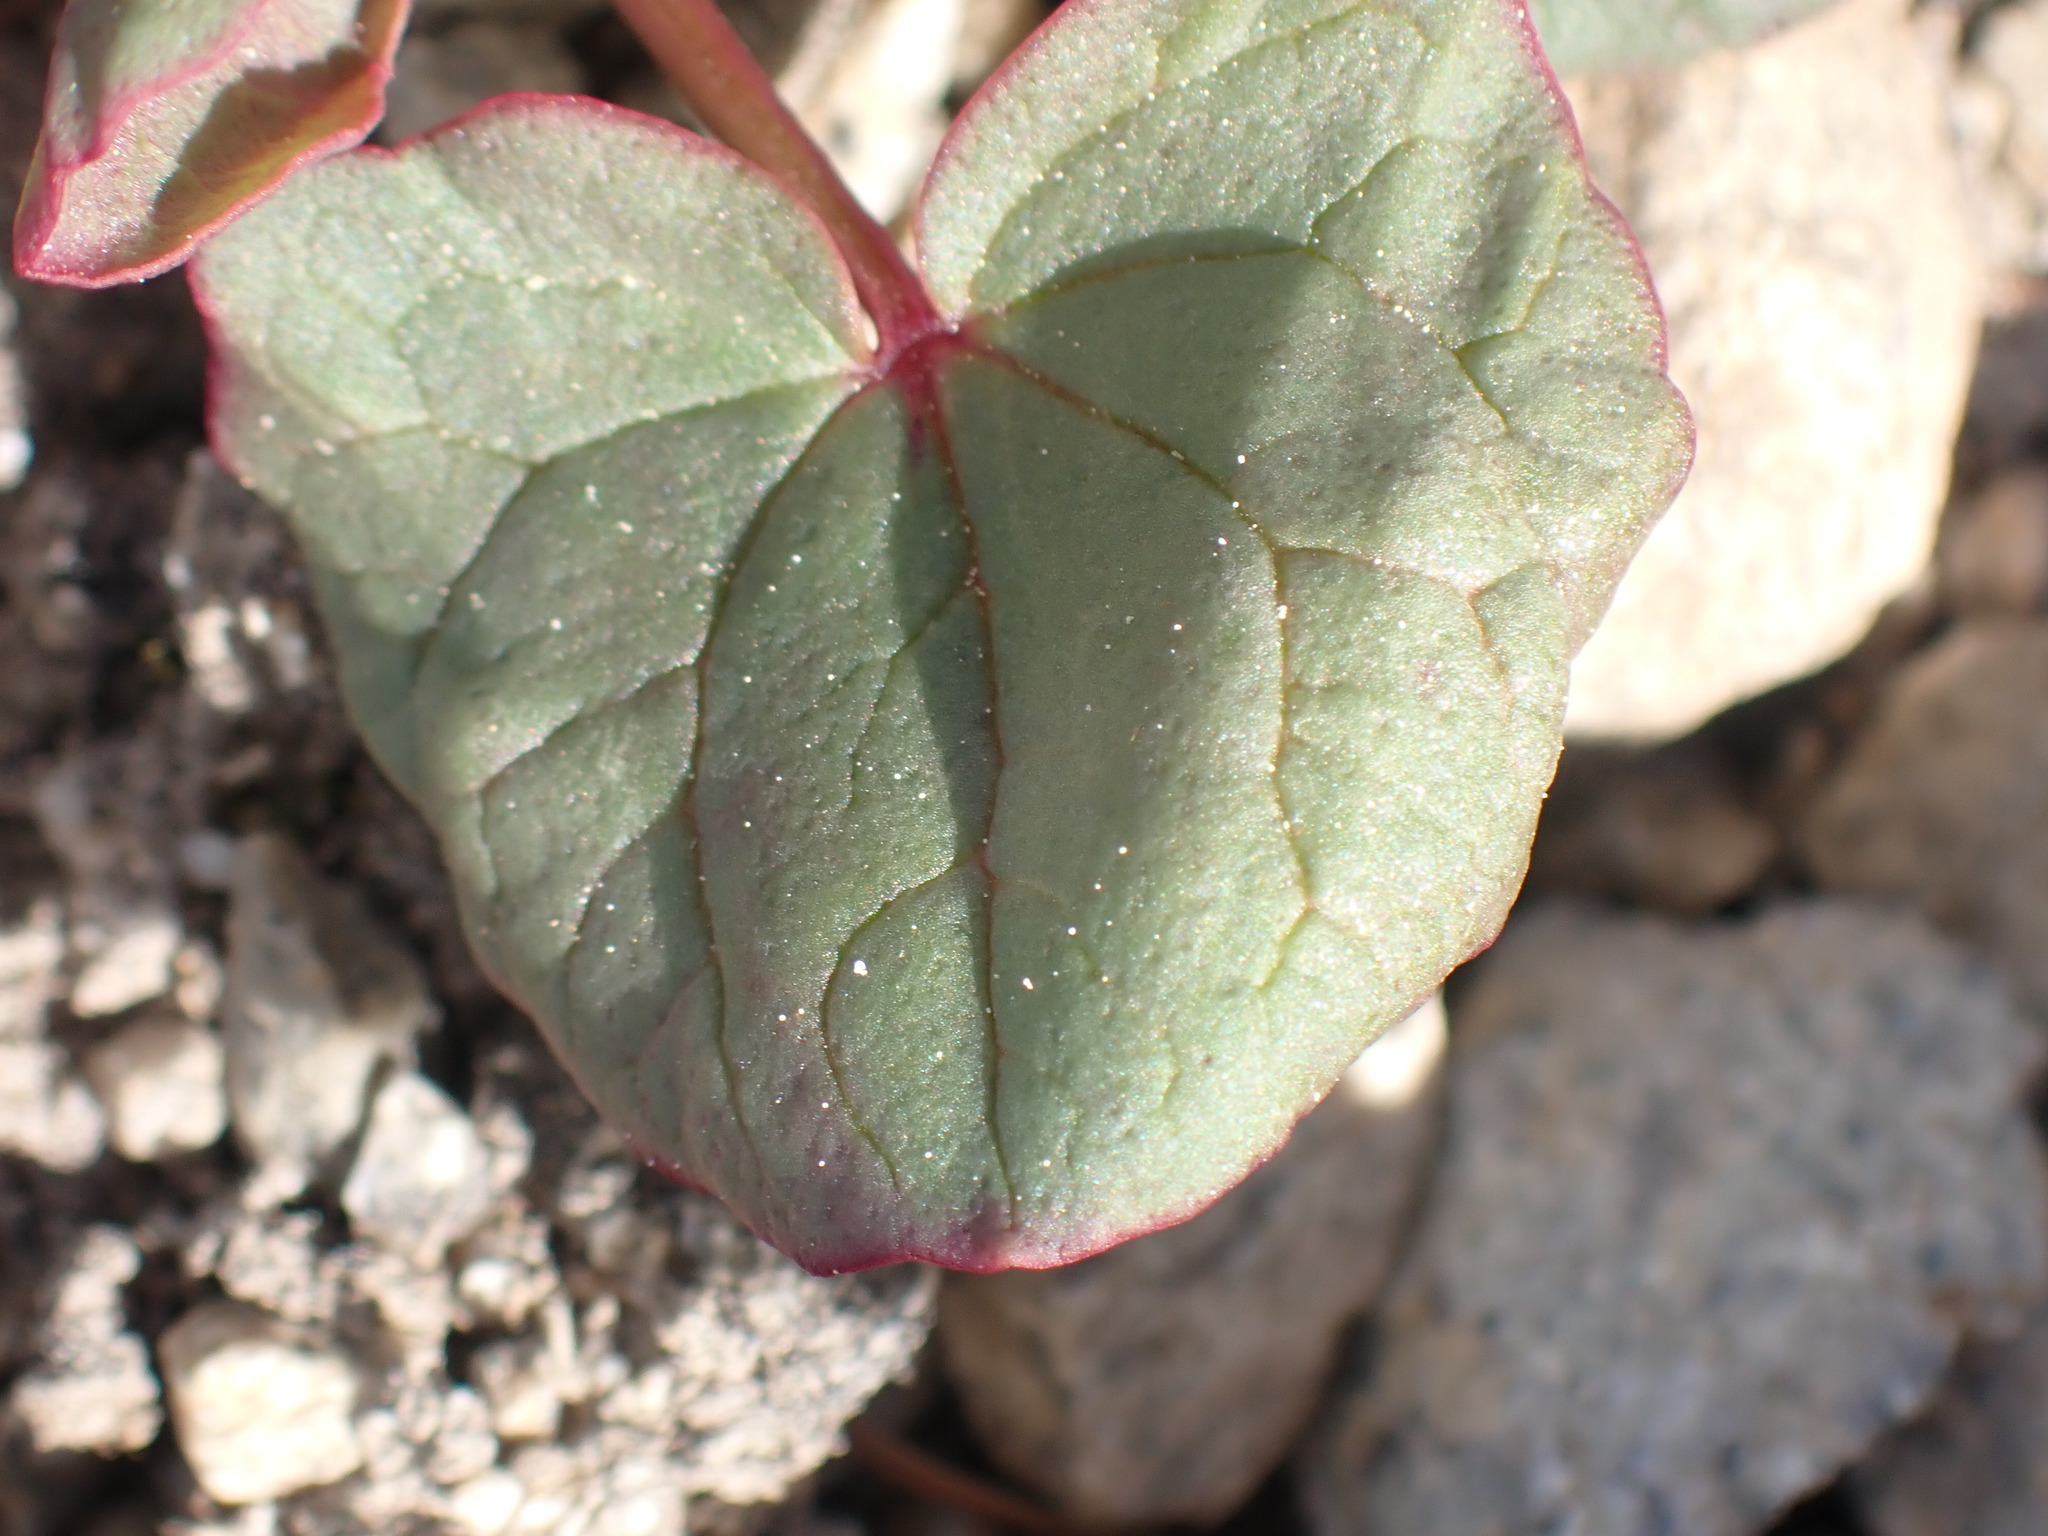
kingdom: Plantae
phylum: Tracheophyta
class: Magnoliopsida
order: Caryophyllales
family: Polygonaceae
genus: Oxyria
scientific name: Oxyria digyna
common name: Alpine mountain-sorrel
